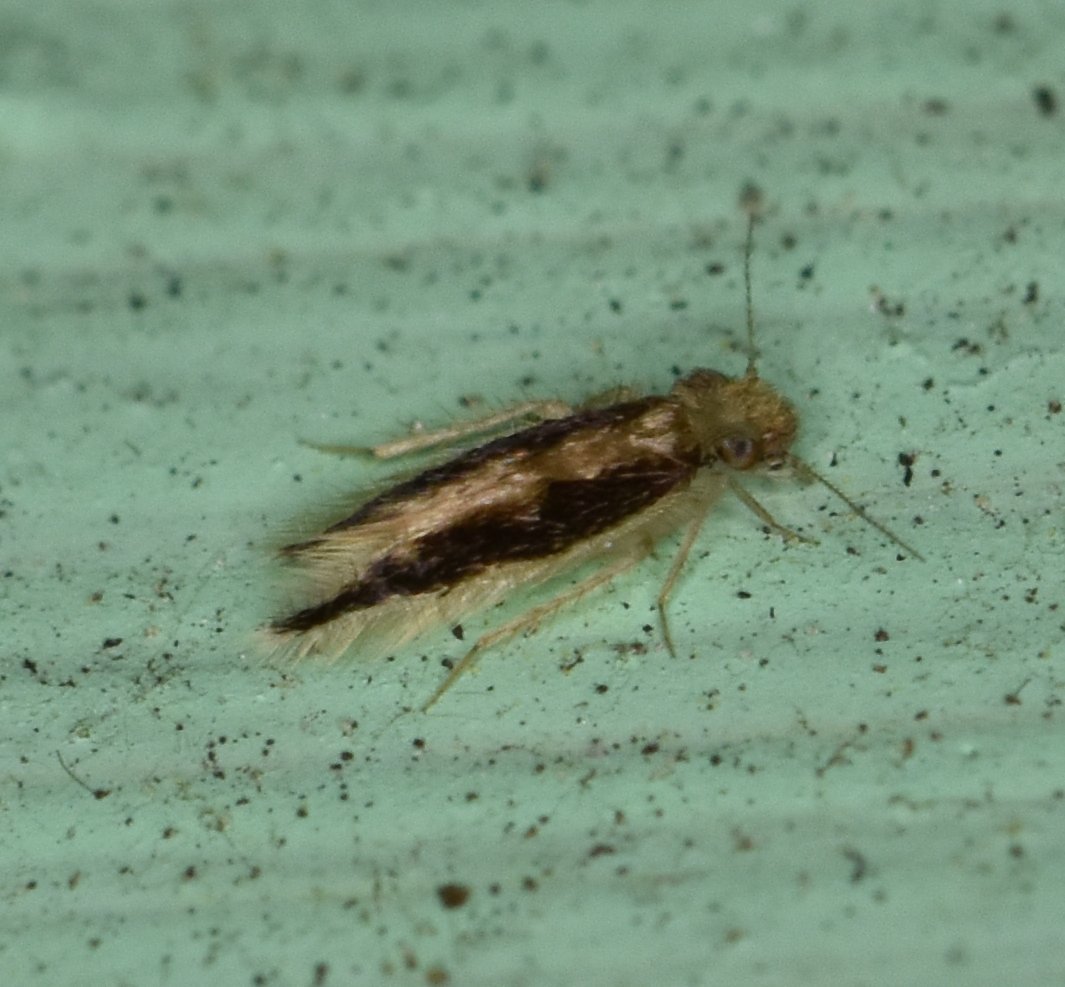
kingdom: Animalia
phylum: Arthropoda
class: Insecta
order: Psocodea
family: Lepidopsocidae
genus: Echmepteryx
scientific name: Echmepteryx madagascariensis
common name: Bark lice
